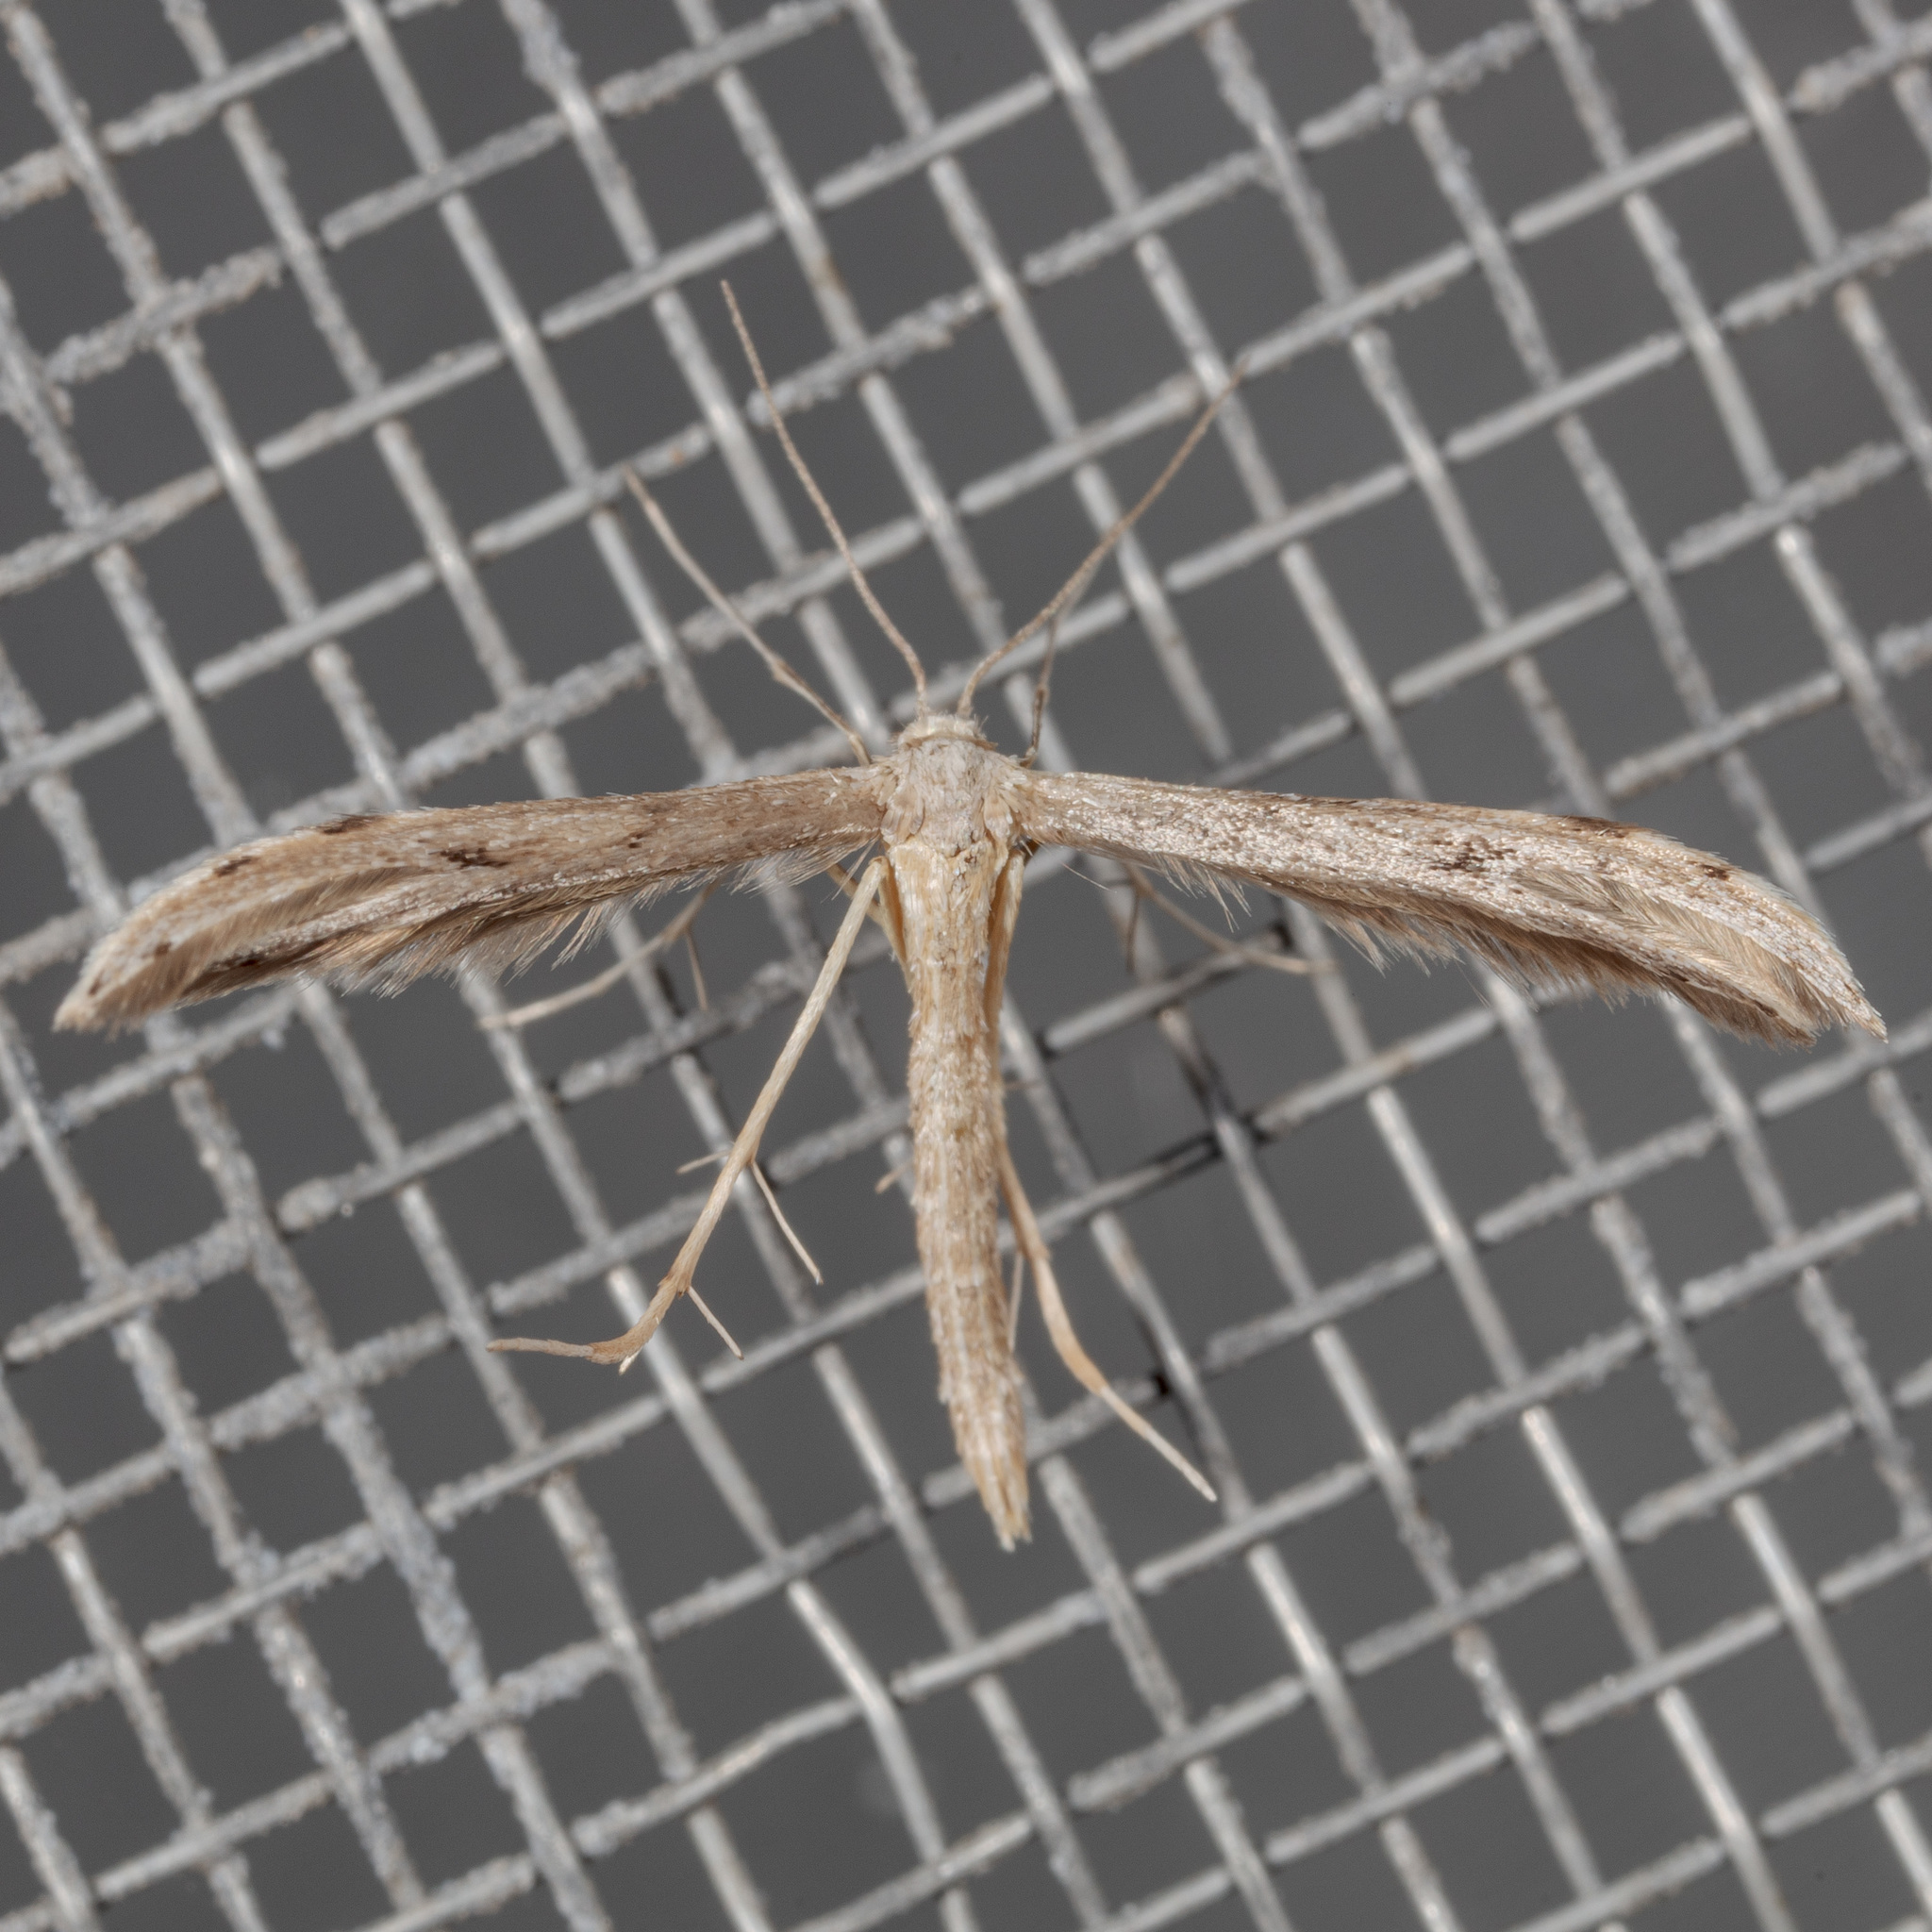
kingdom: Animalia
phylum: Arthropoda
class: Insecta
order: Lepidoptera
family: Pterophoridae
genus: Pselnophorus
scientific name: Pselnophorus belfragei
